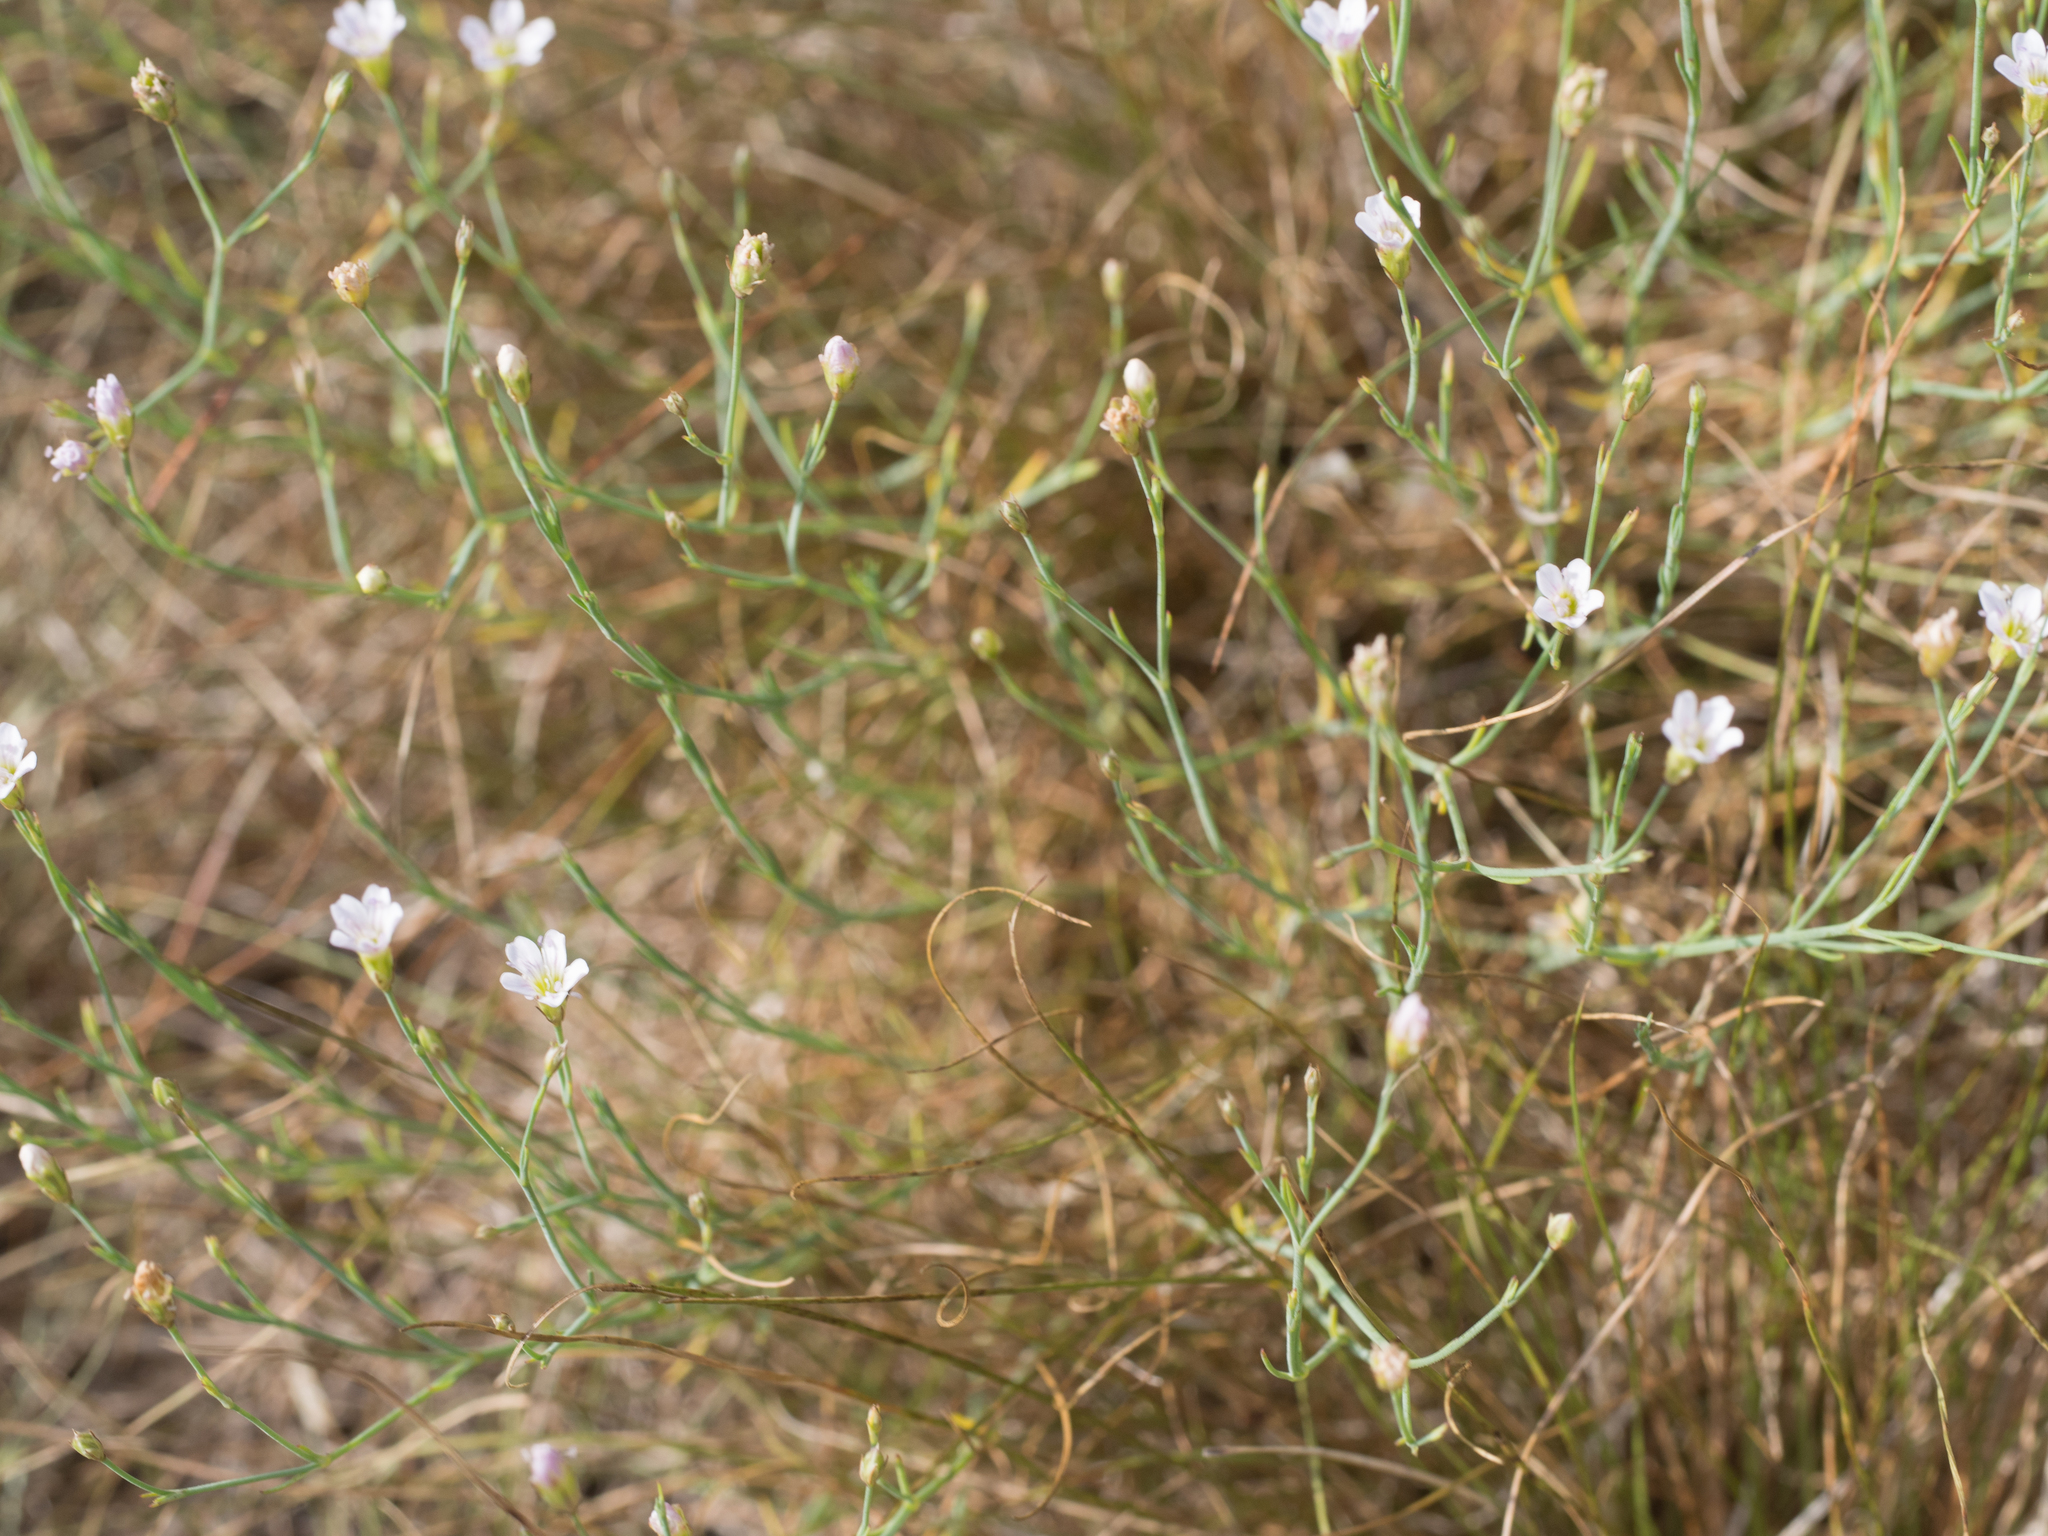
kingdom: Plantae
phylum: Tracheophyta
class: Magnoliopsida
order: Caryophyllales
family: Caryophyllaceae
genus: Petrorhagia
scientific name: Petrorhagia saxifraga
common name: Tunicflower
